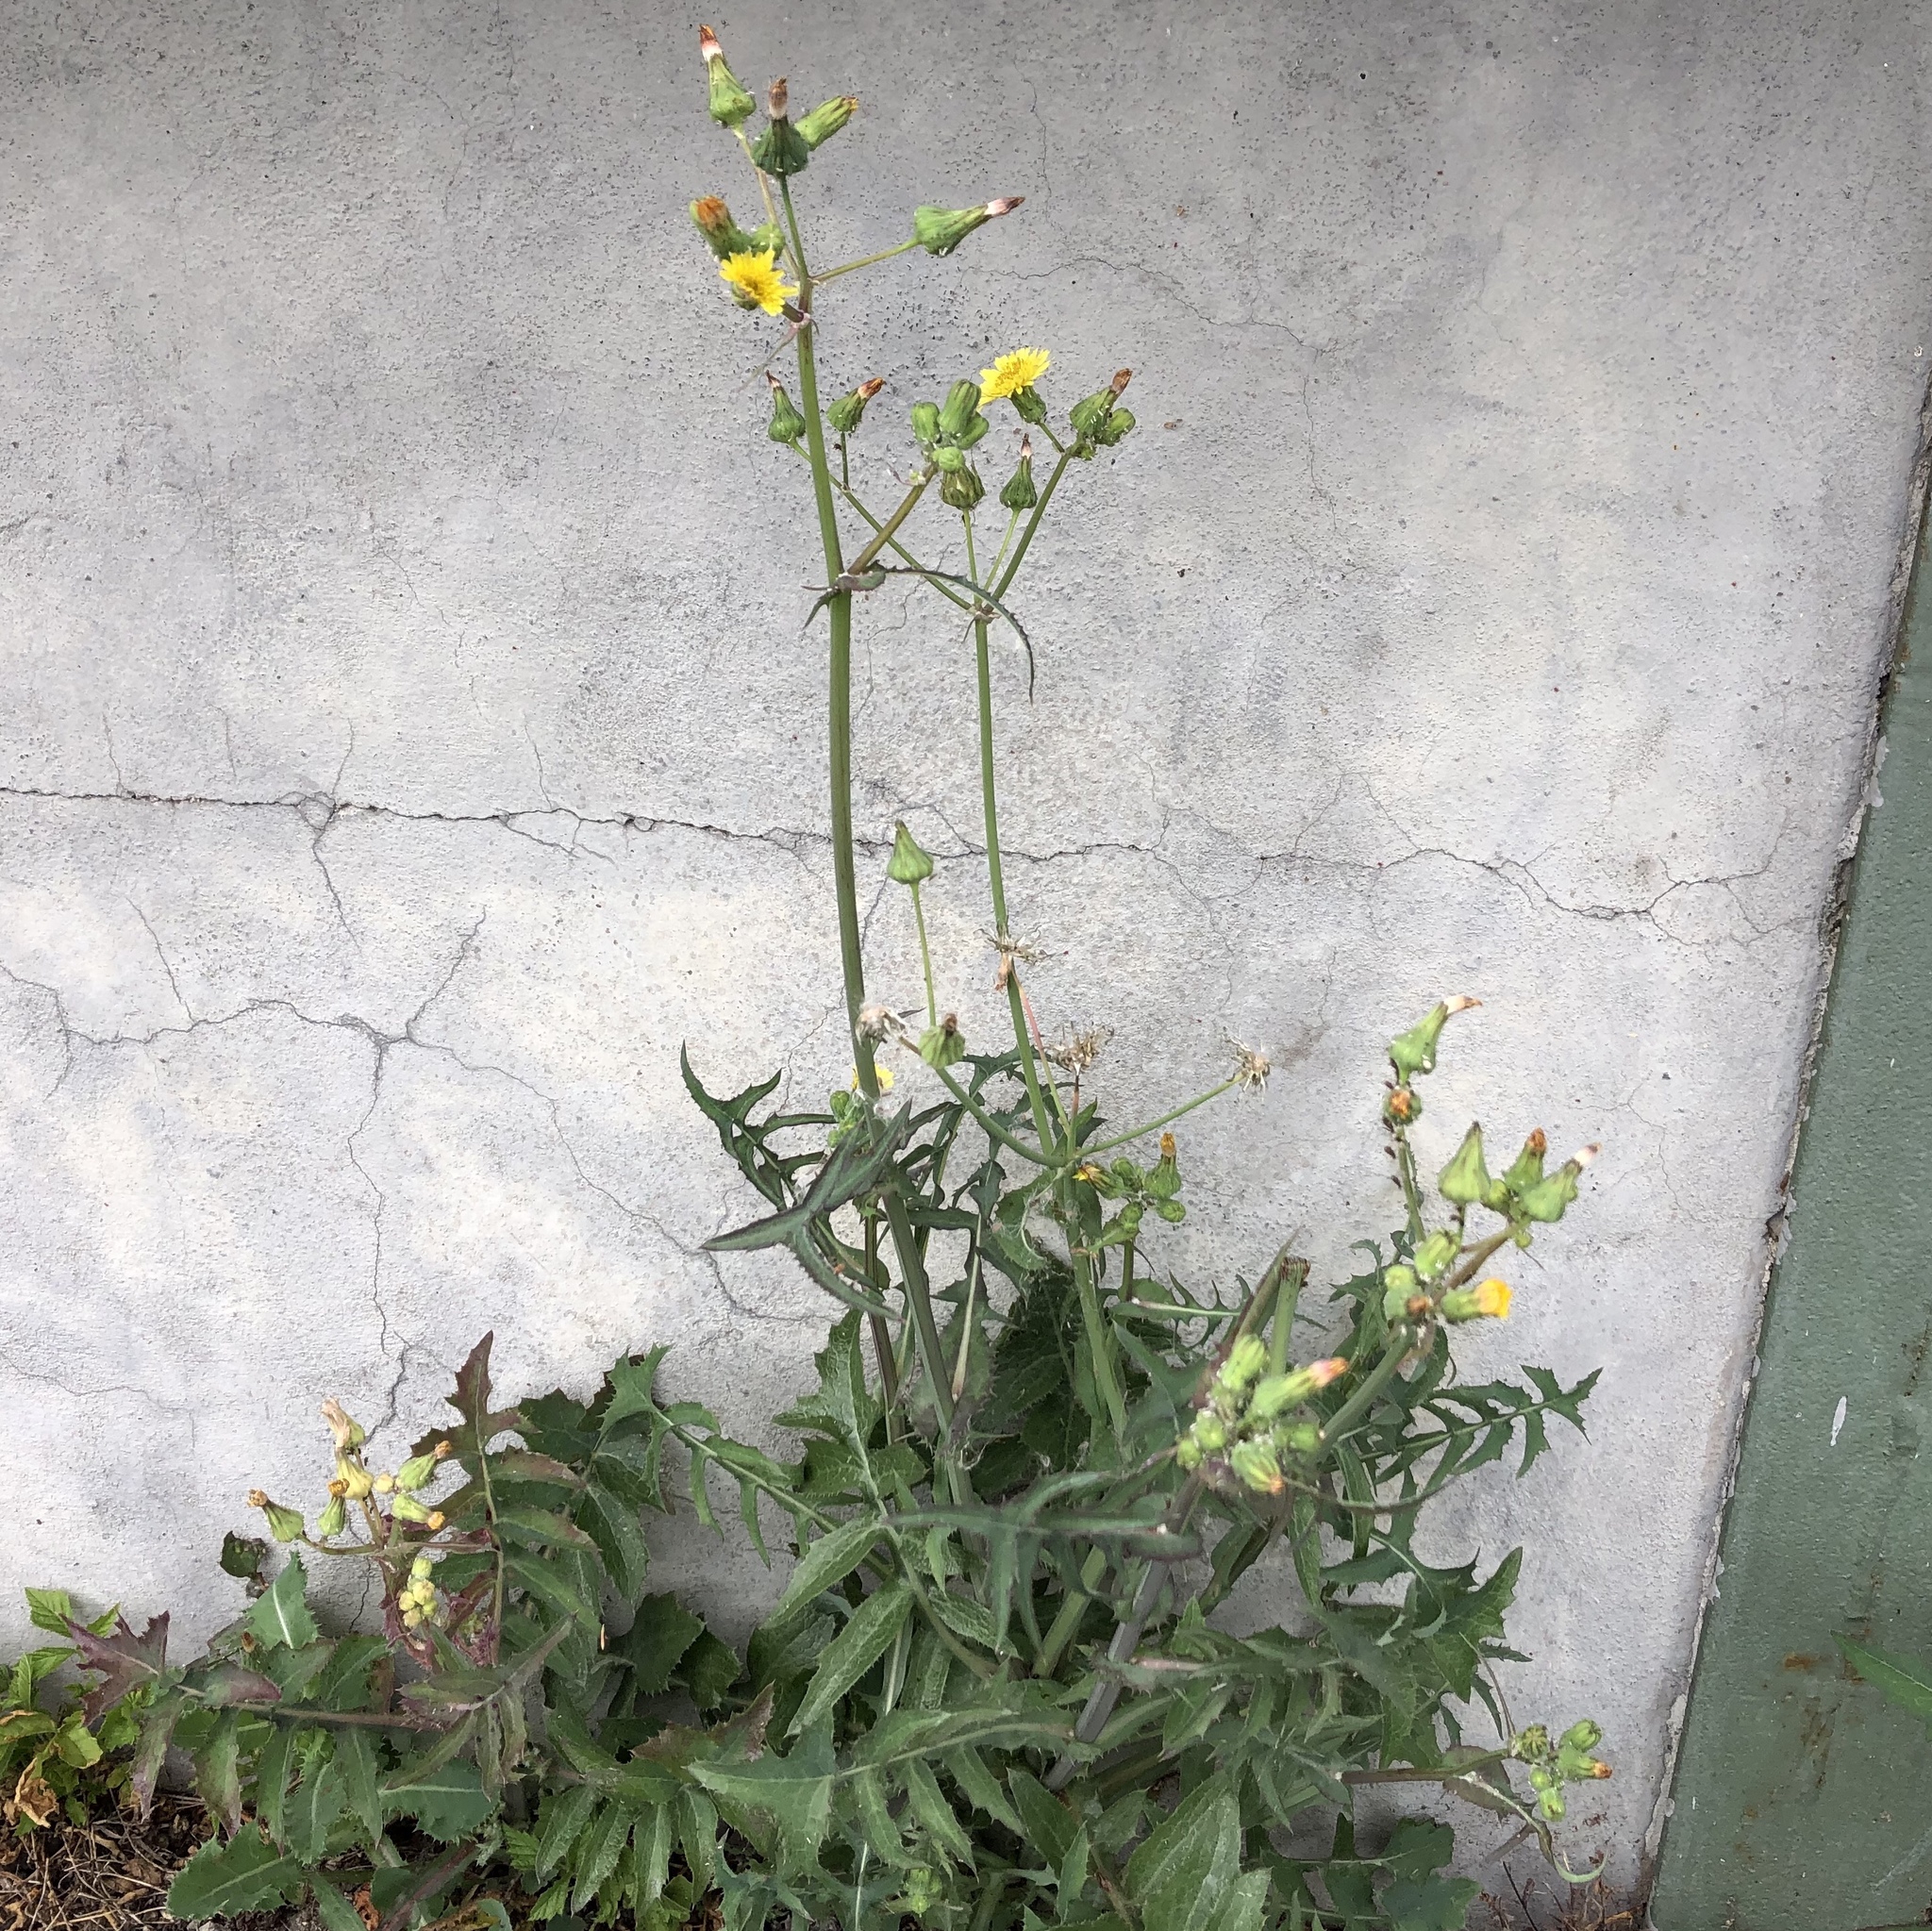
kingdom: Plantae
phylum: Tracheophyta
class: Magnoliopsida
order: Asterales
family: Asteraceae
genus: Sonchus
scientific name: Sonchus oleraceus
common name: Common sowthistle
